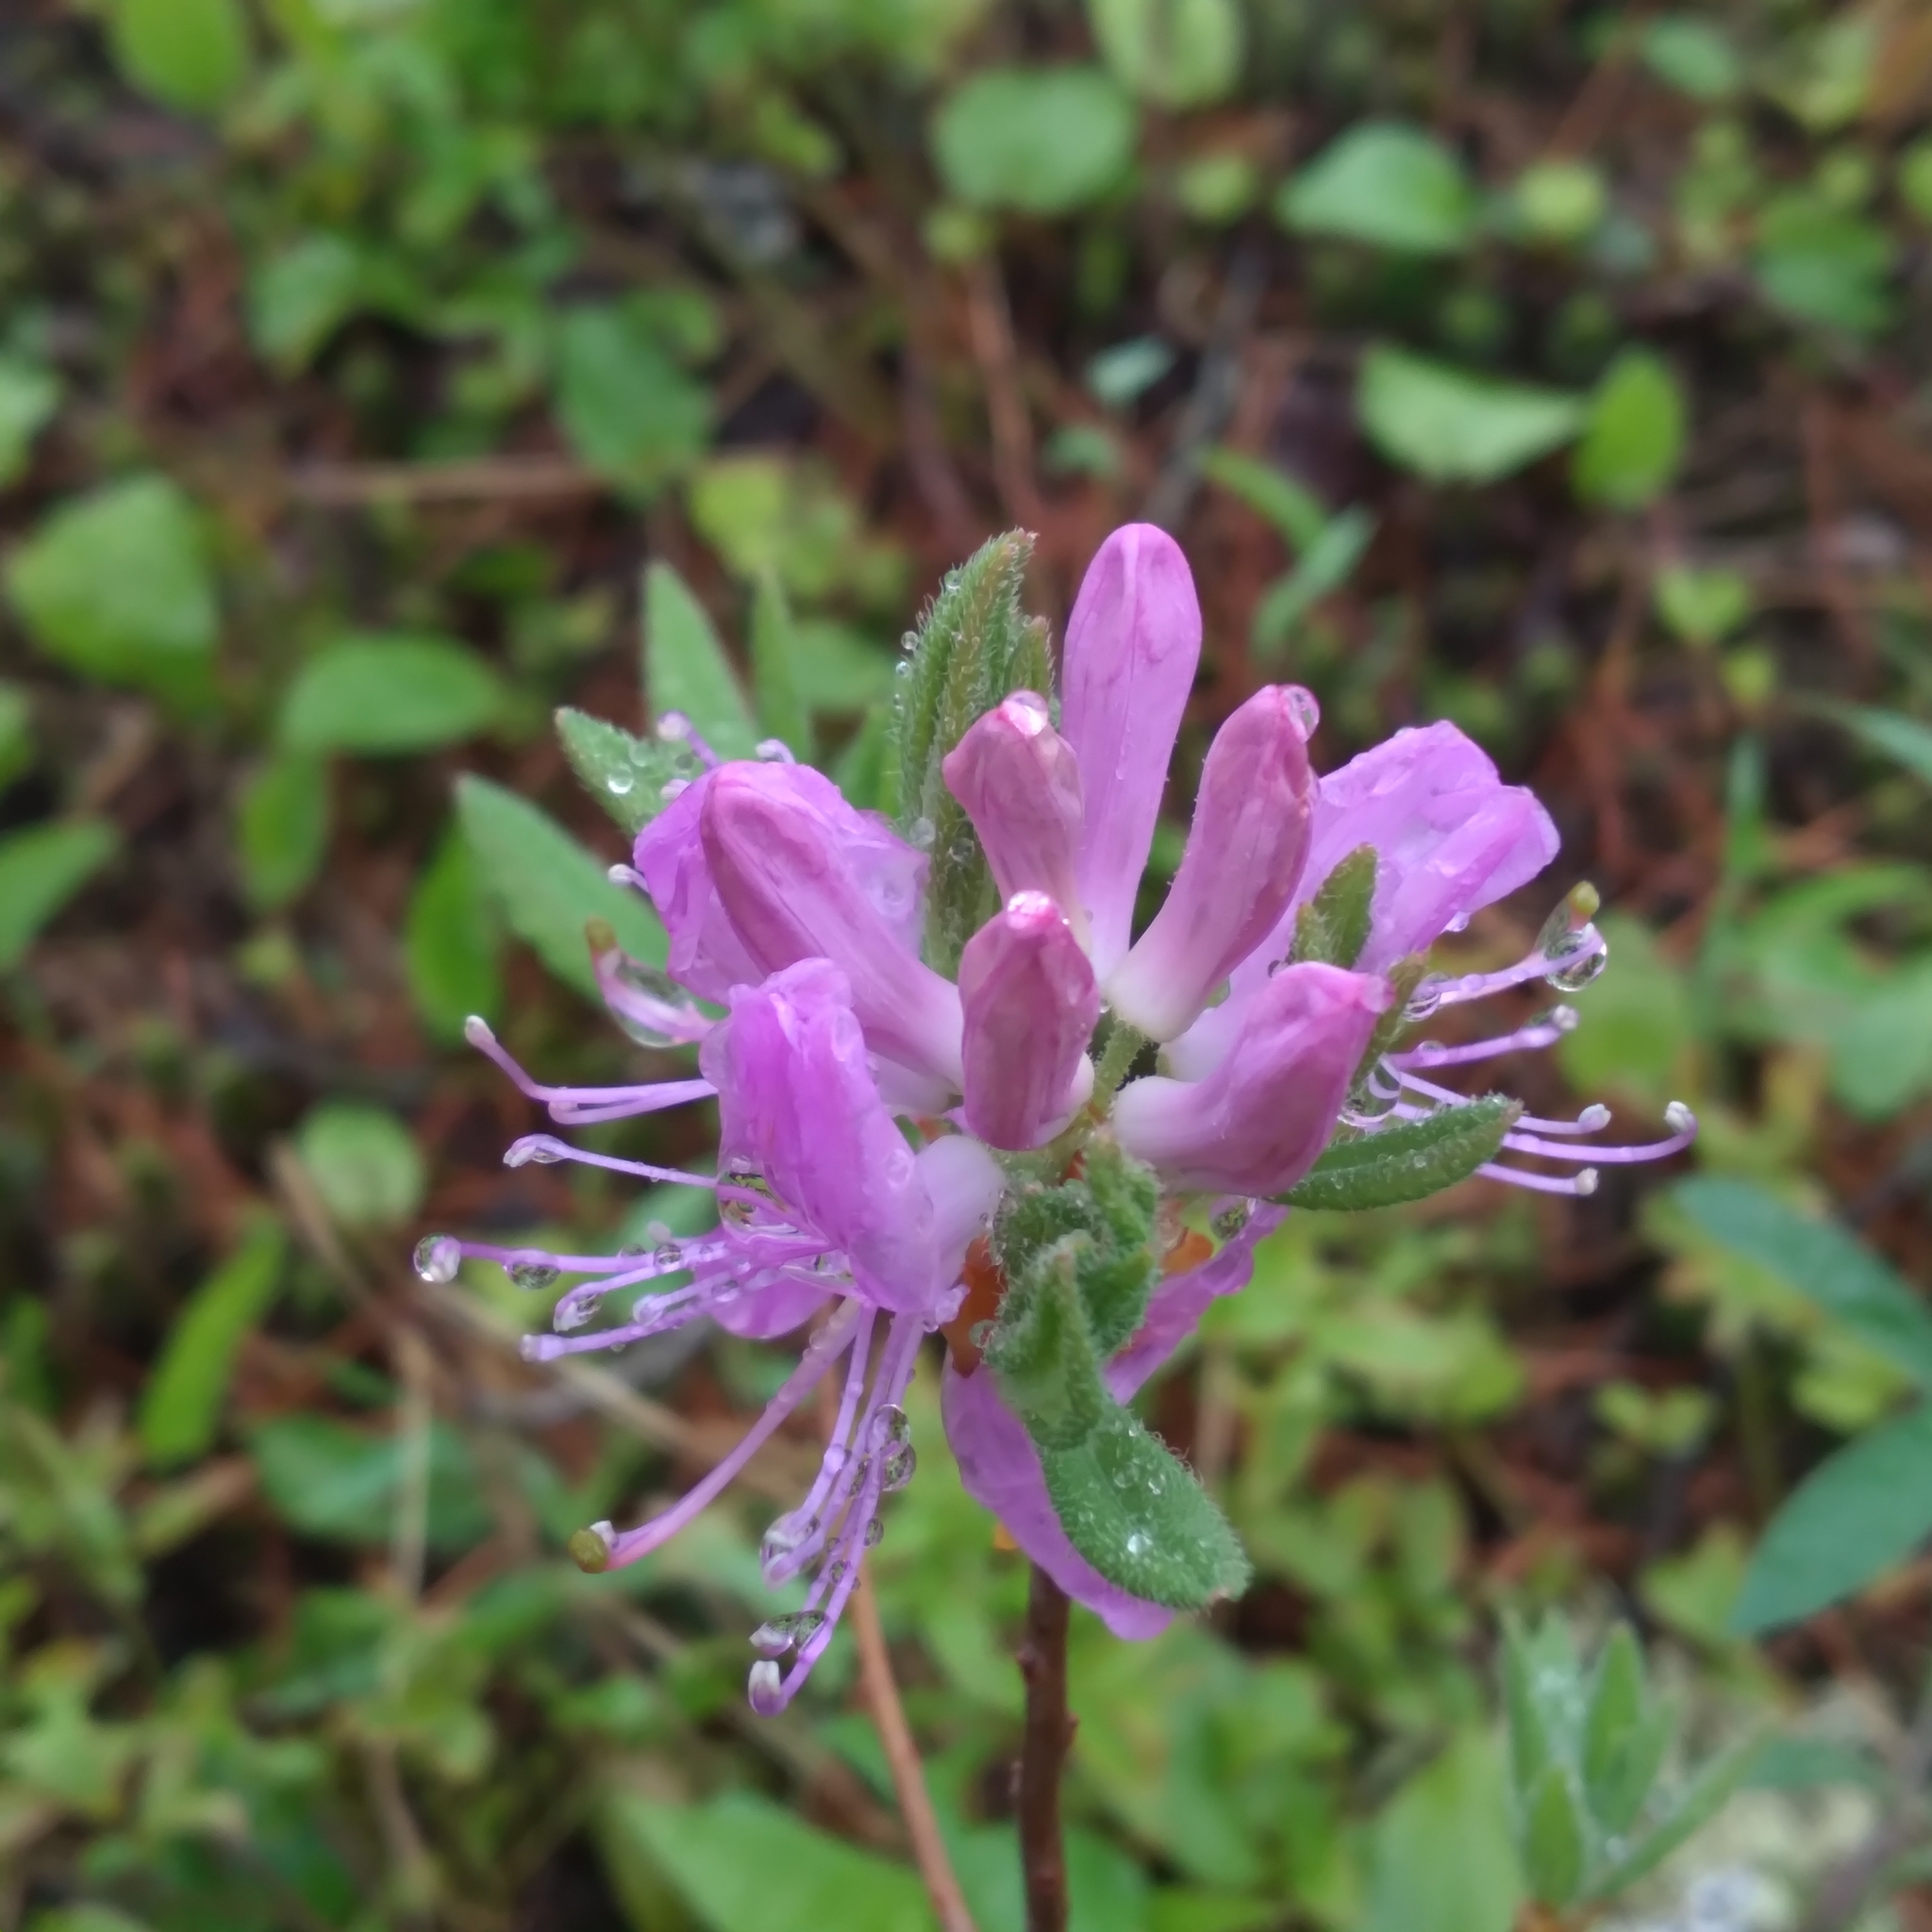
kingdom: Plantae
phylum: Tracheophyta
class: Magnoliopsida
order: Ericales
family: Ericaceae
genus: Rhododendron
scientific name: Rhododendron canadense
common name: Rhodora
